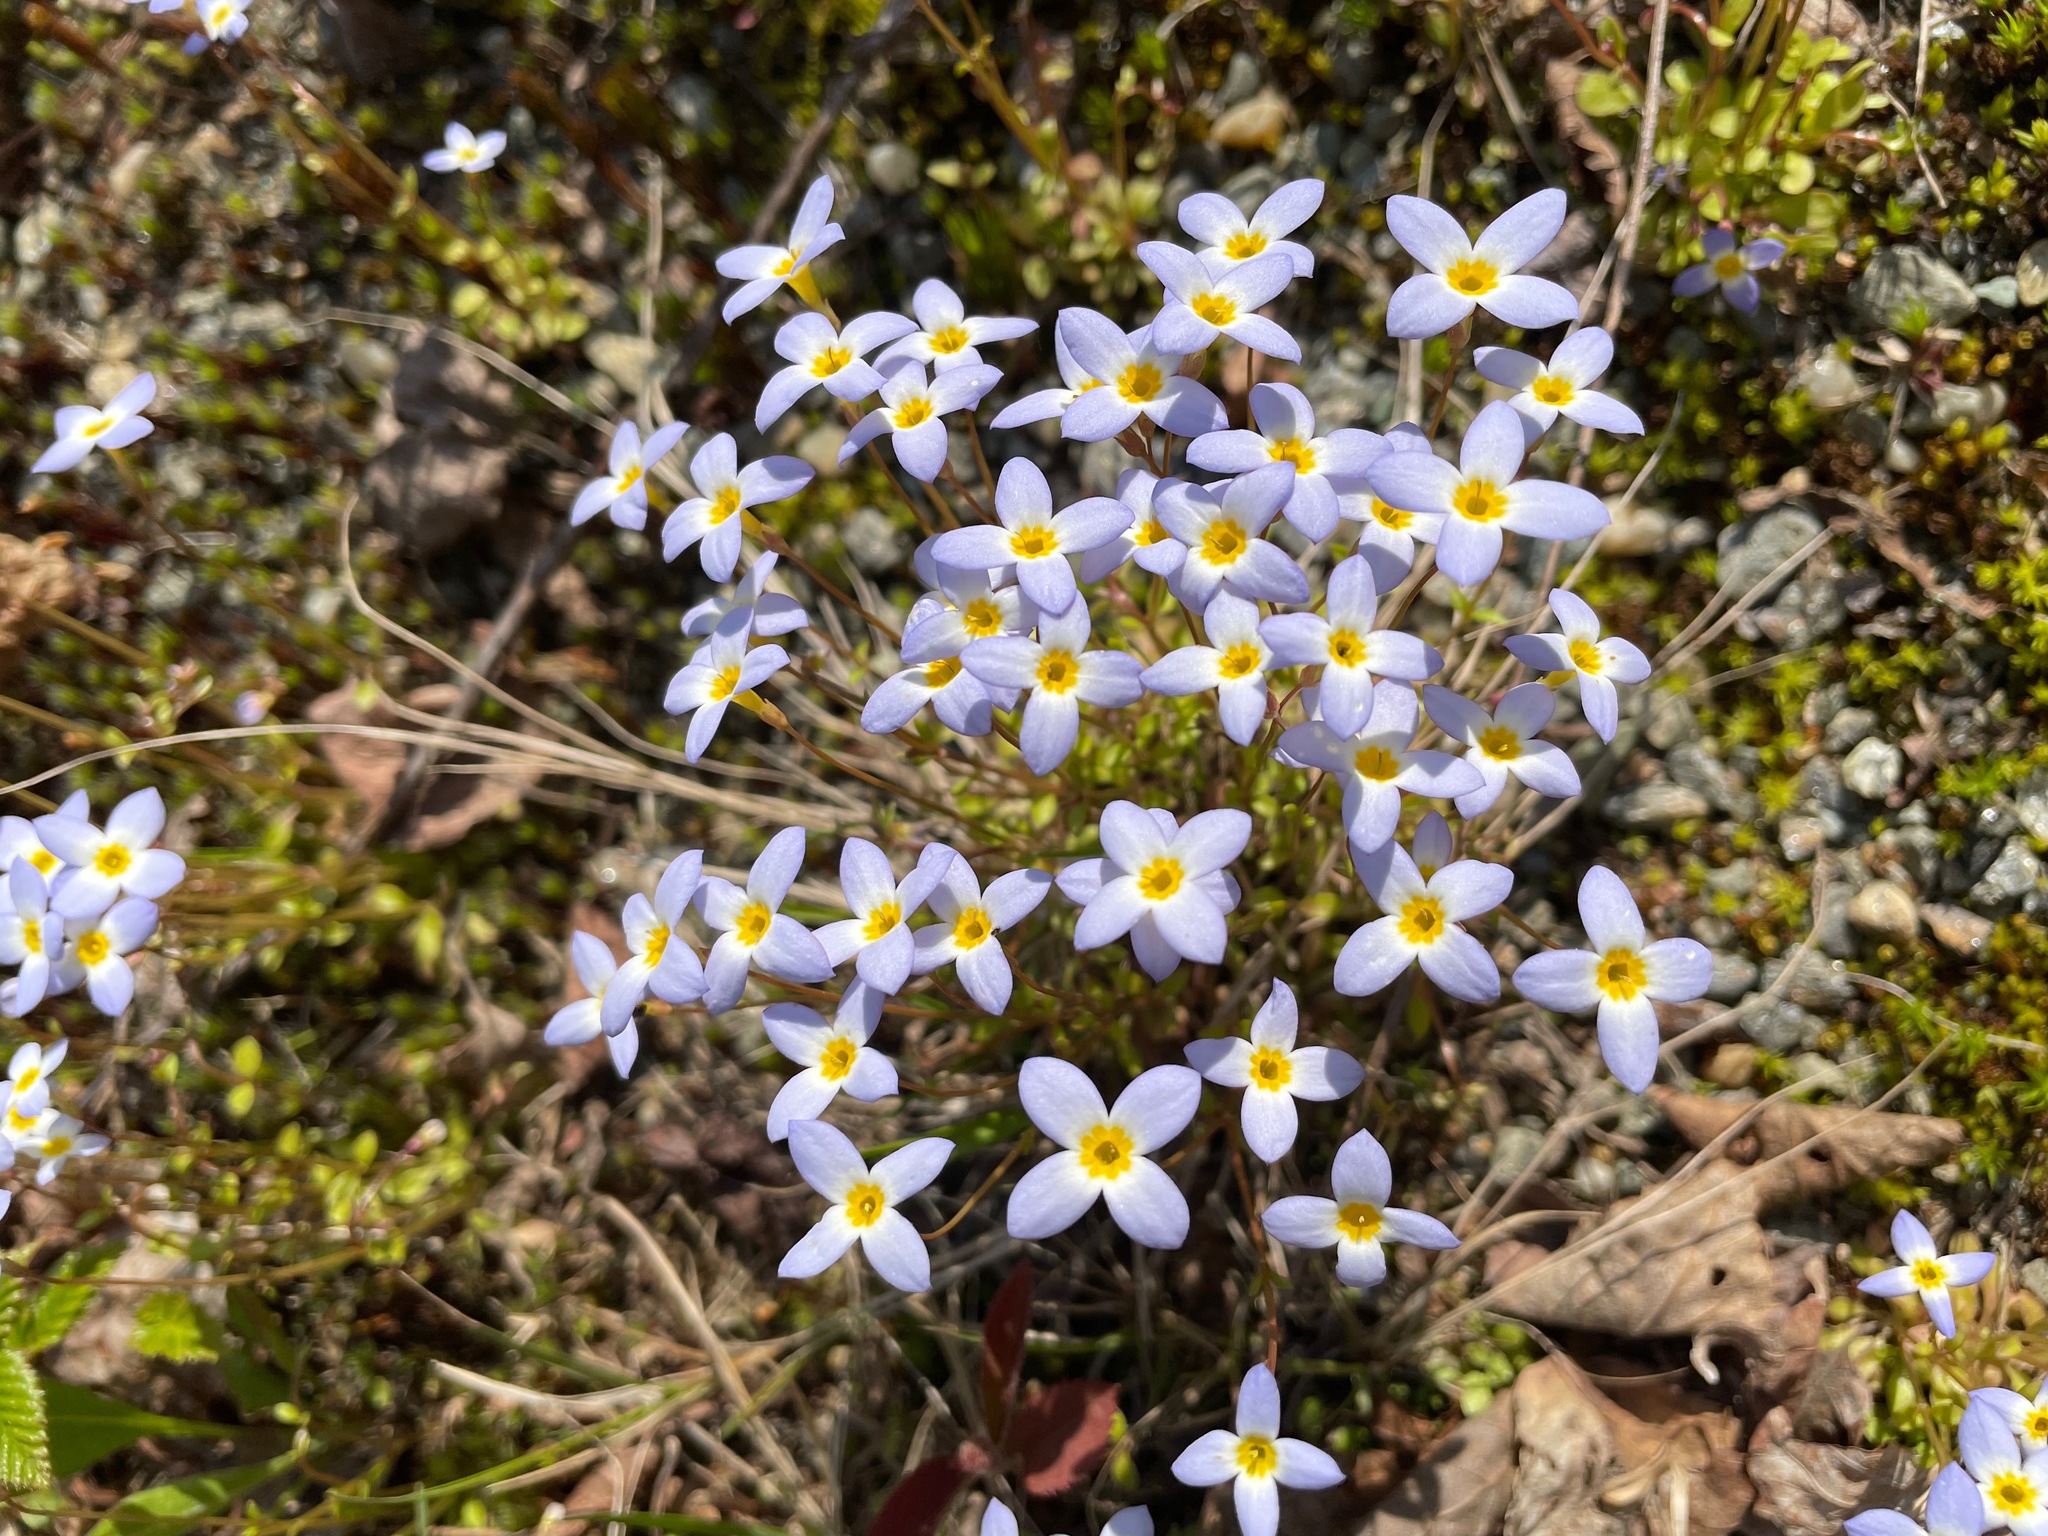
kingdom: Plantae
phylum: Tracheophyta
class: Magnoliopsida
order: Gentianales
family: Rubiaceae
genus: Houstonia
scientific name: Houstonia caerulea
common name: Bluets
